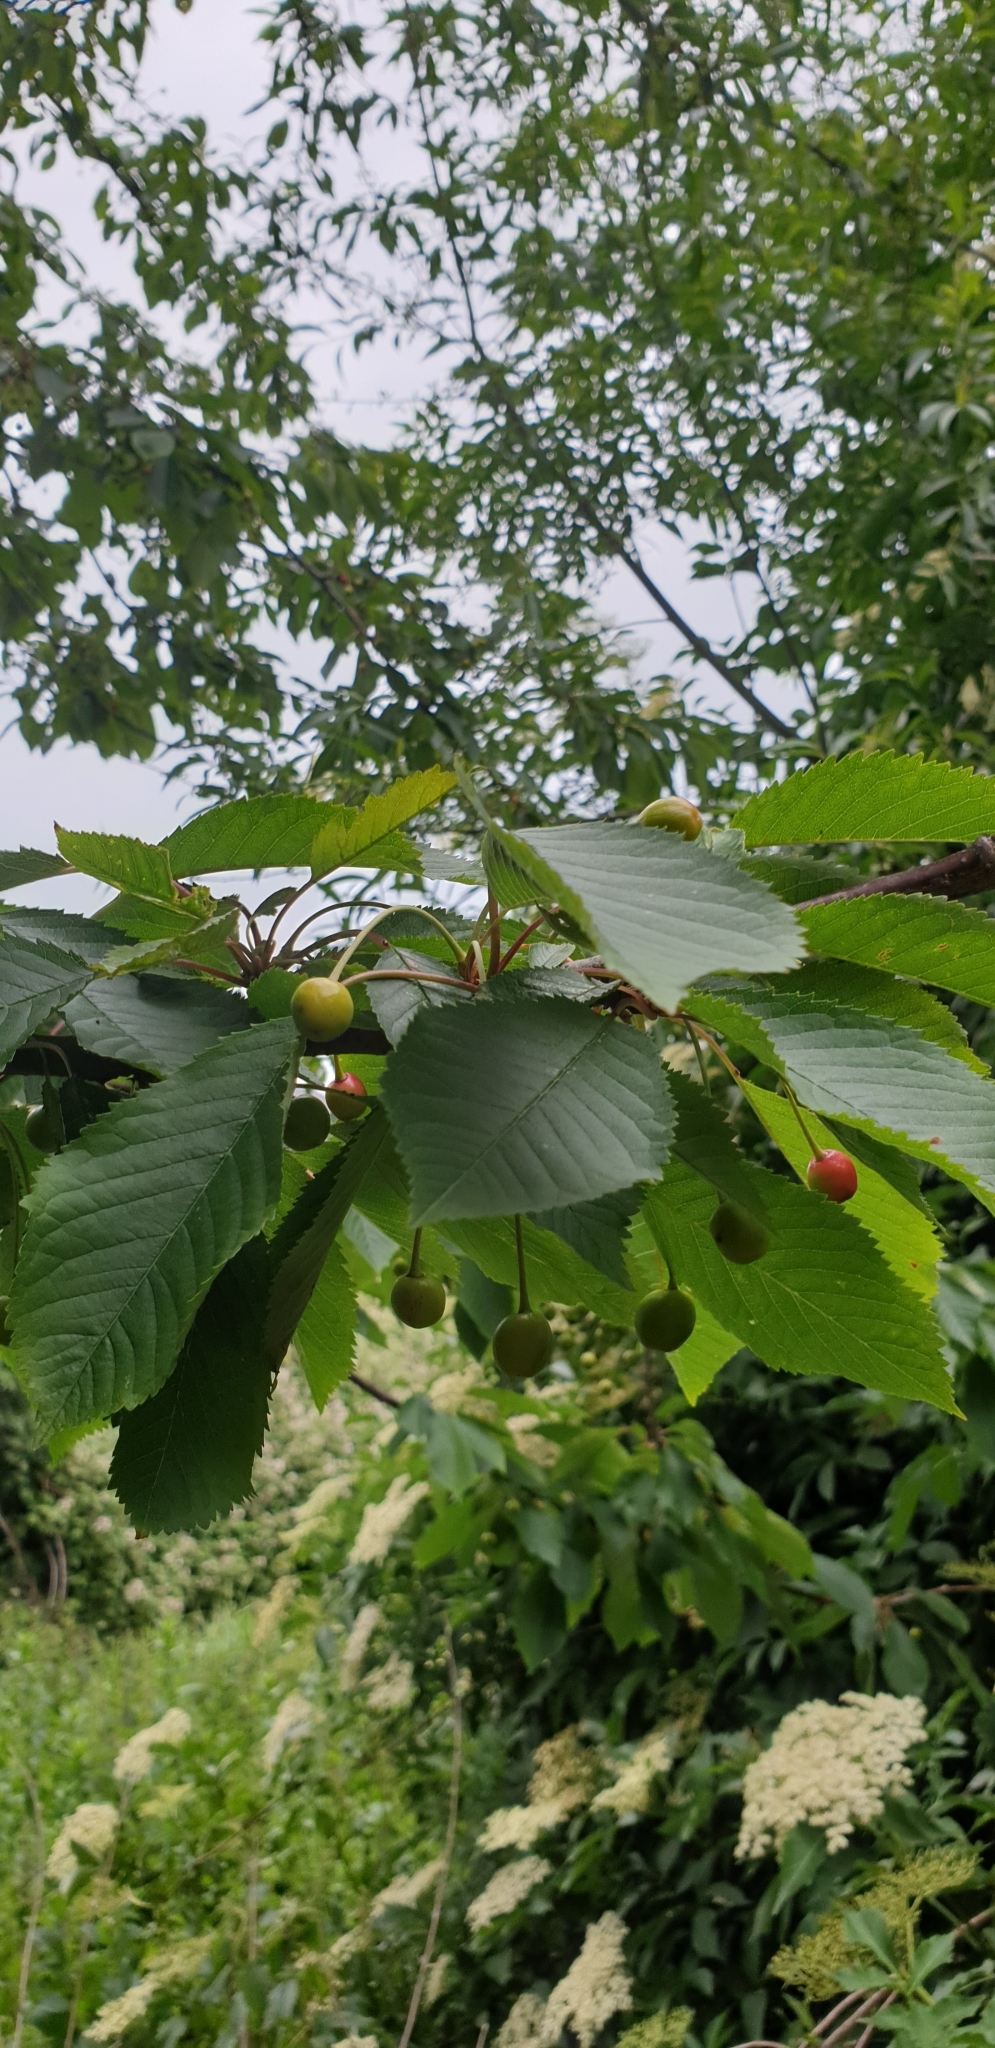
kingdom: Plantae
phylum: Tracheophyta
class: Magnoliopsida
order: Rosales
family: Rosaceae
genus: Prunus
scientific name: Prunus avium
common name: Sweet cherry
